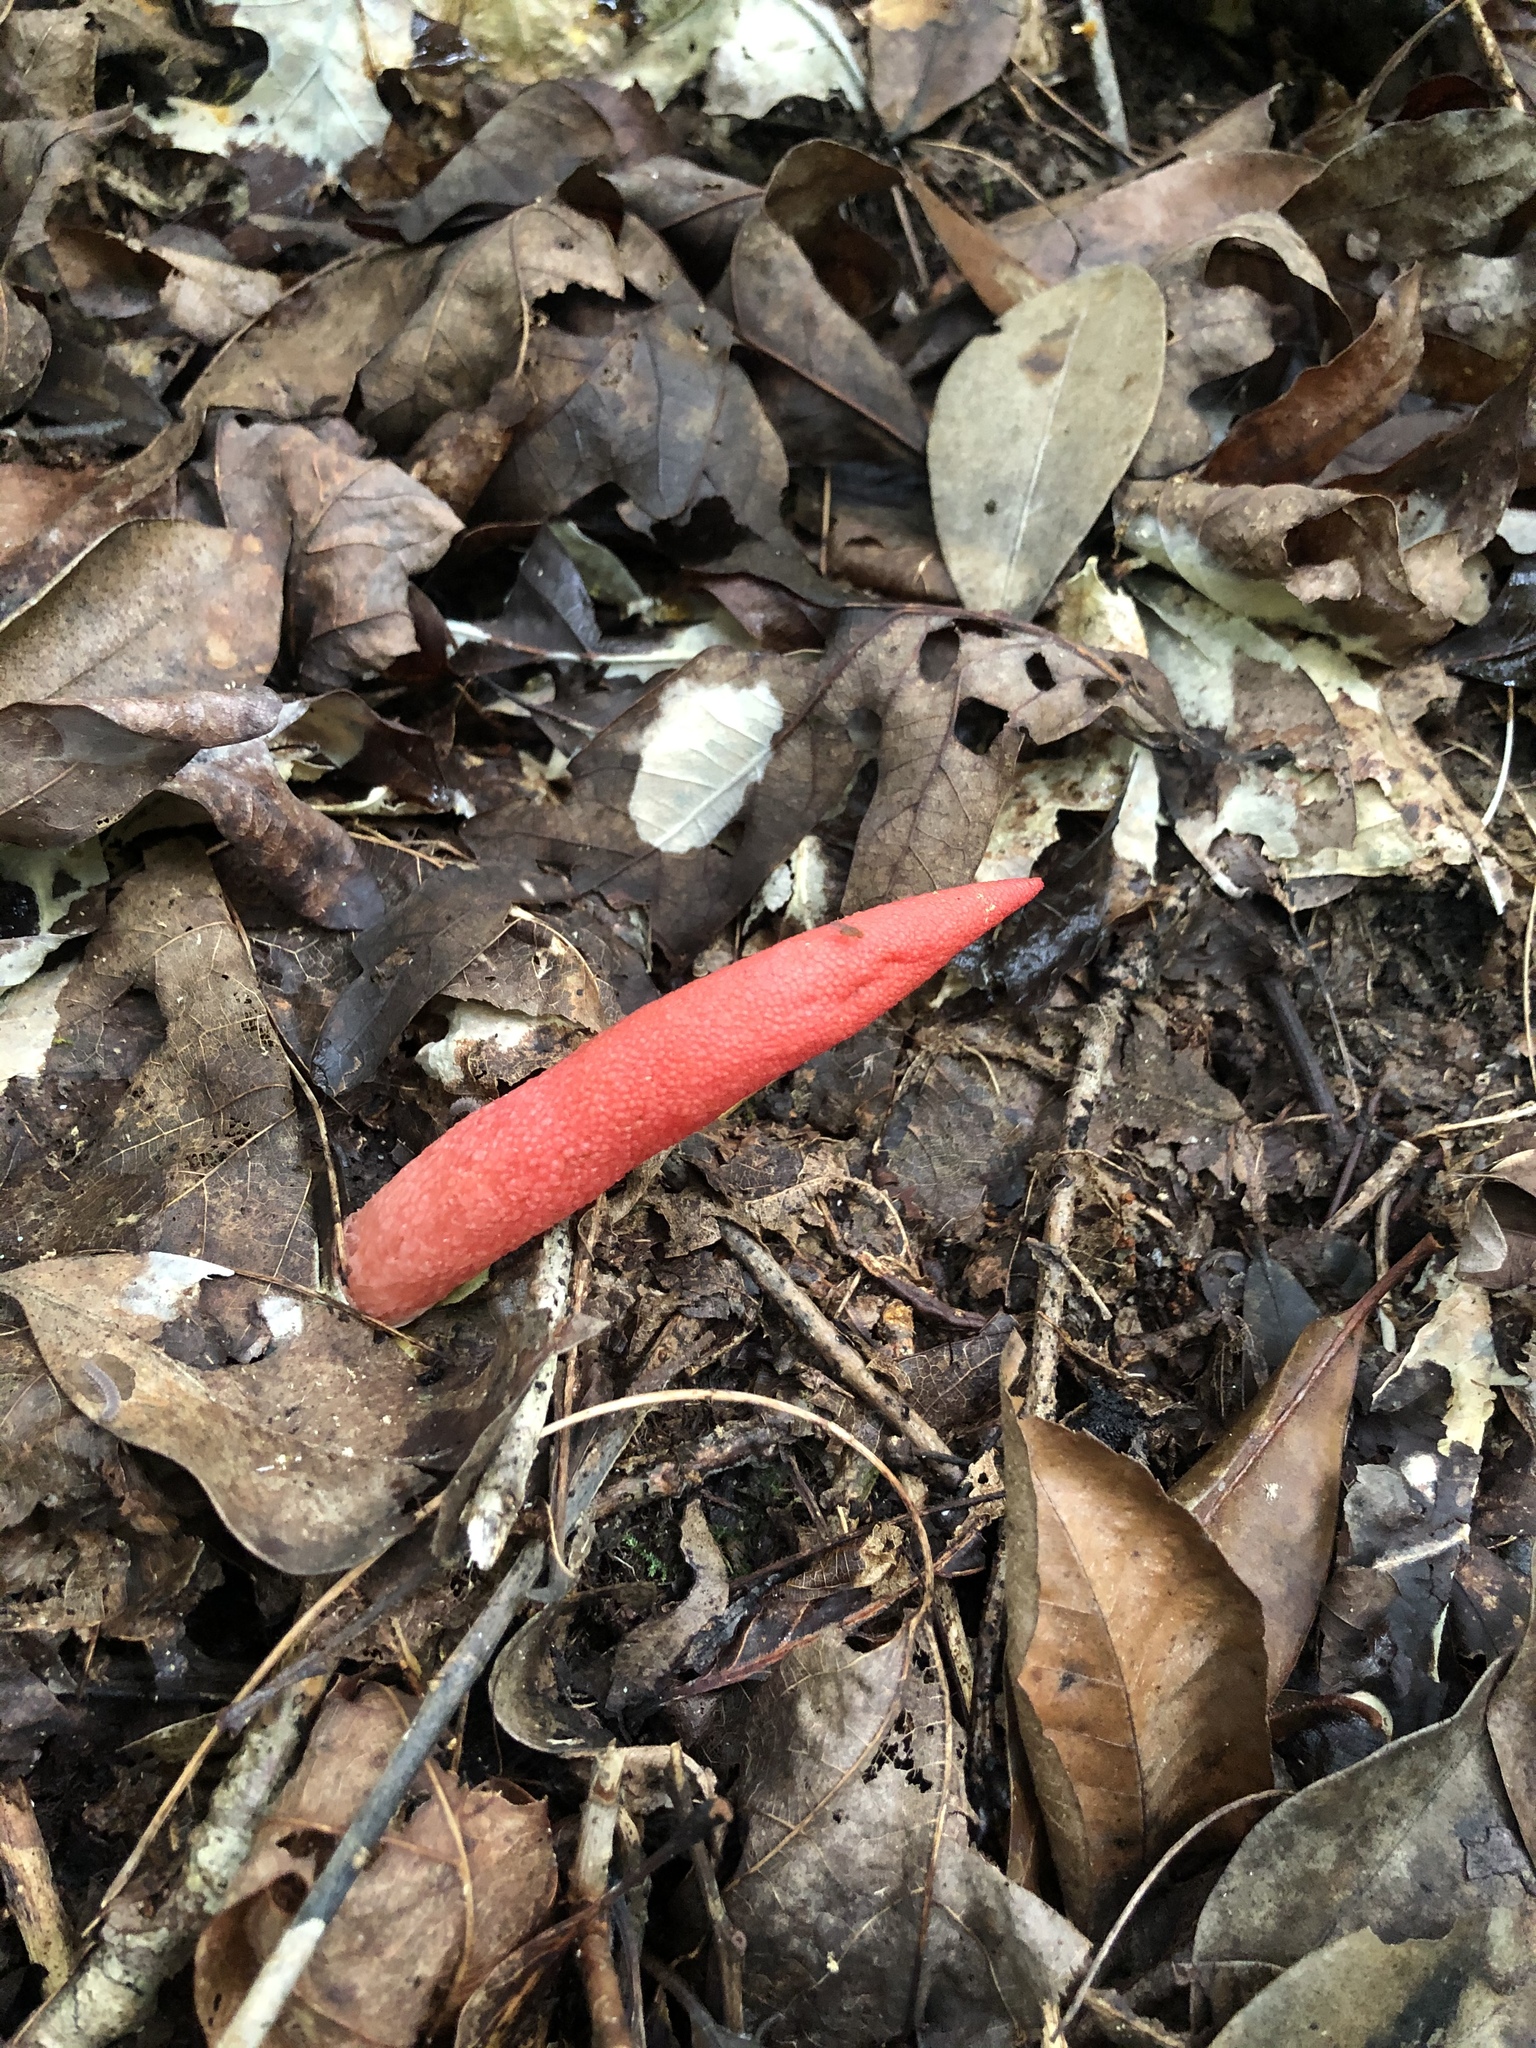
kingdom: Fungi
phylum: Basidiomycota
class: Agaricomycetes
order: Phallales
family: Phallaceae
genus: Mutinus
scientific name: Mutinus elegans
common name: Devil's dipstick
